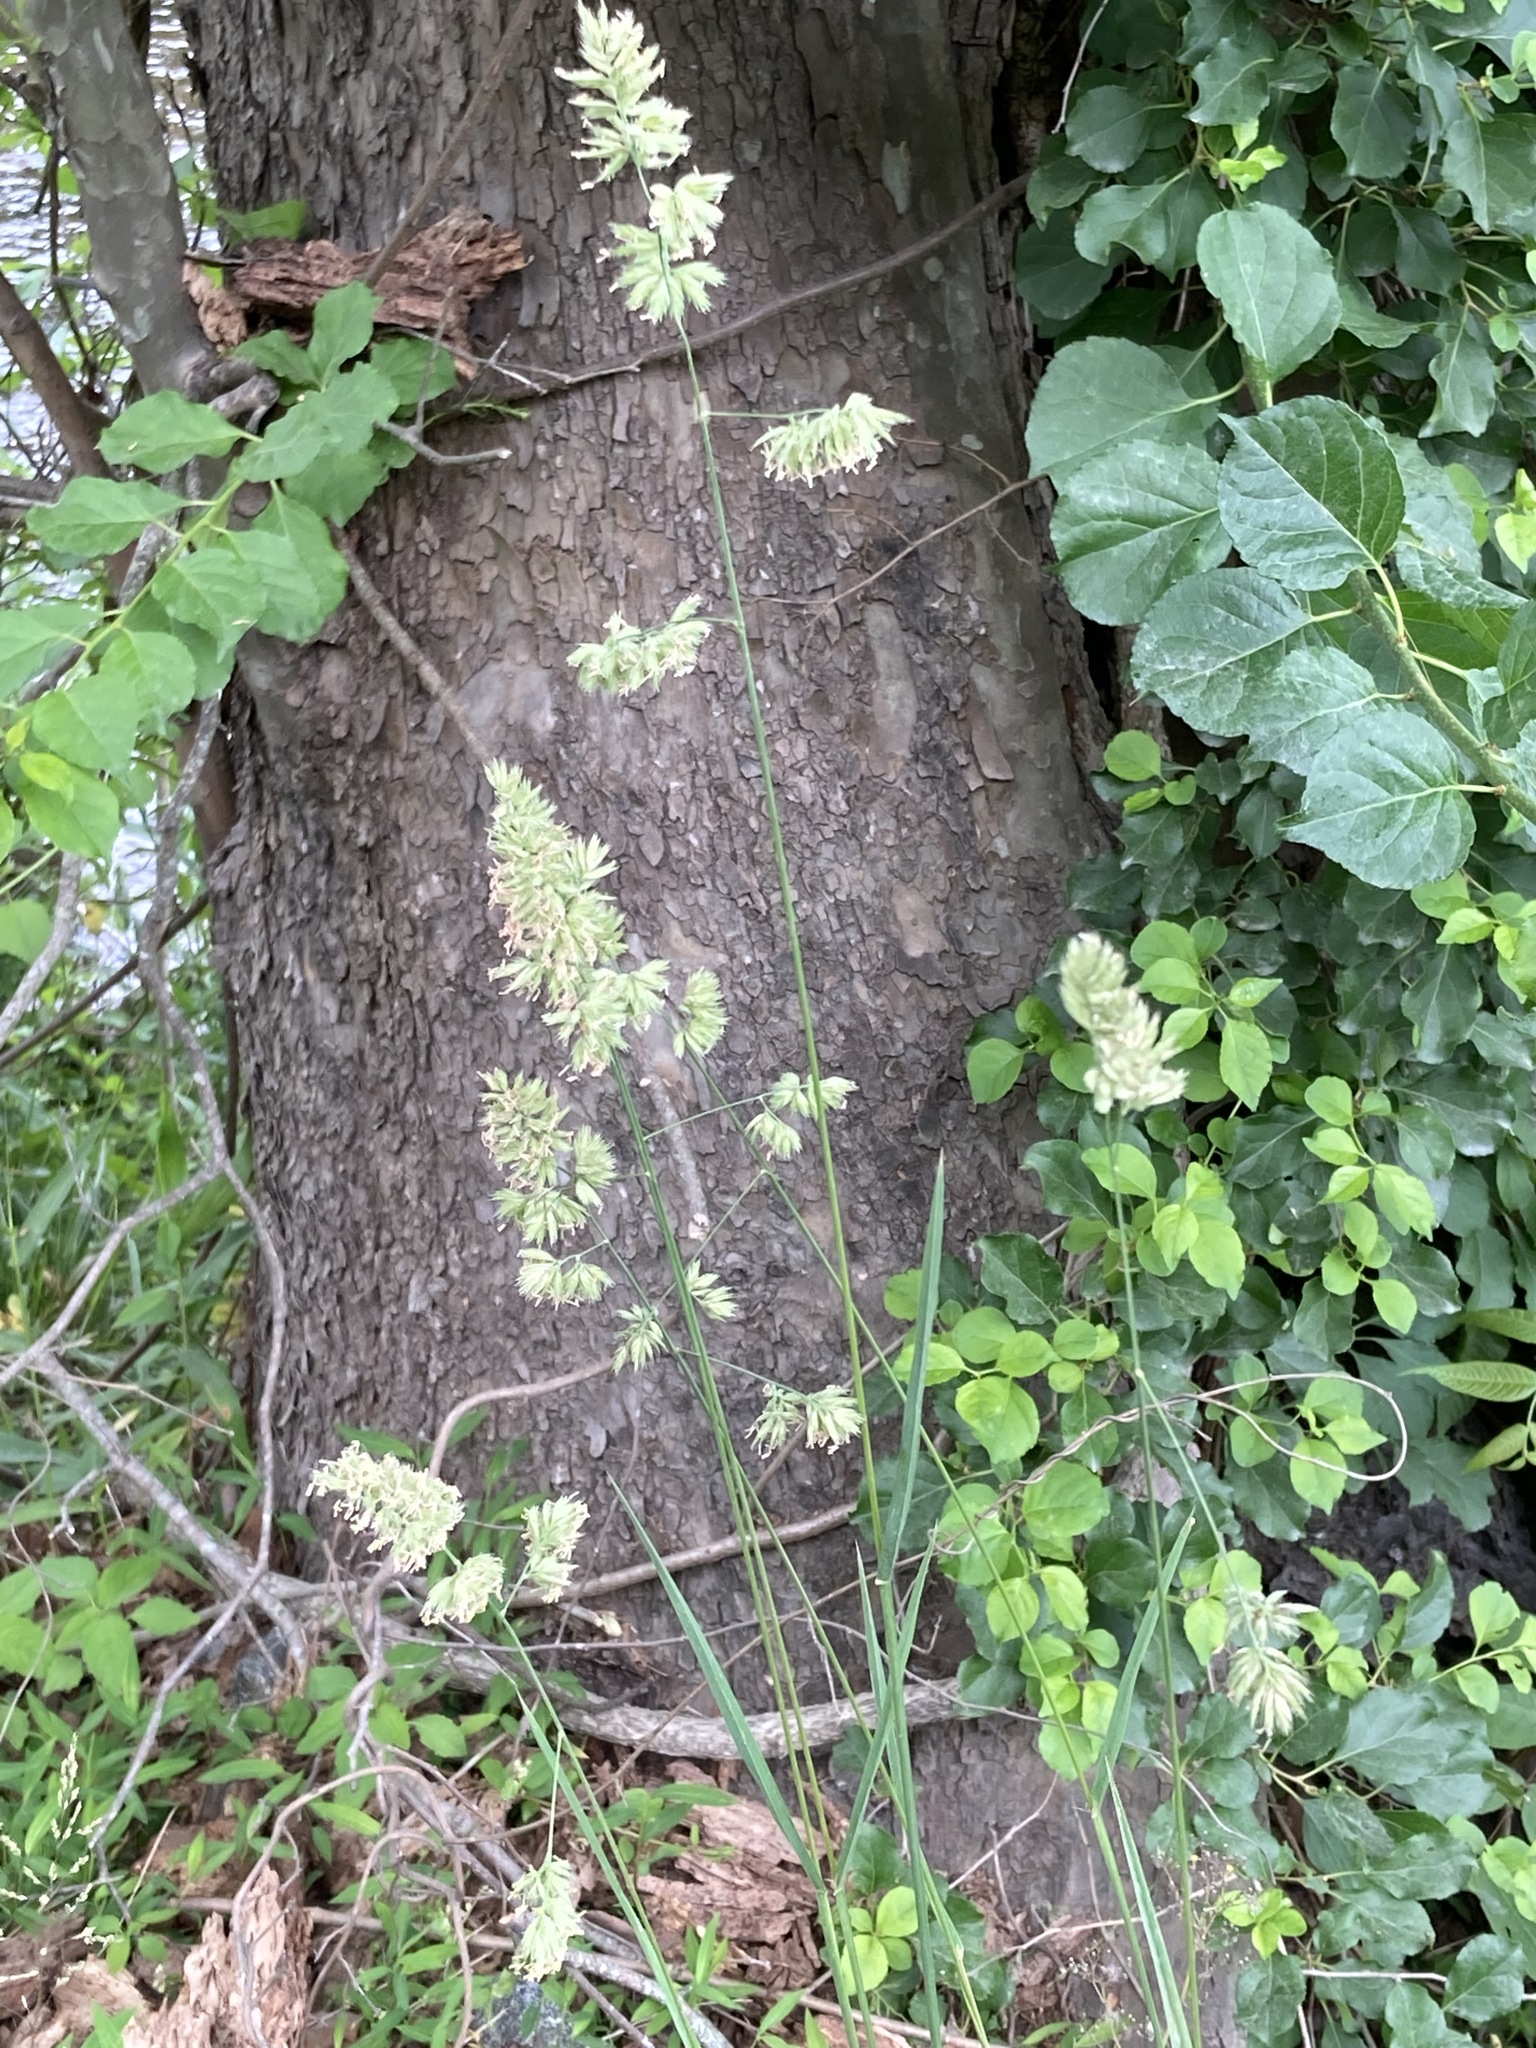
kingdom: Plantae
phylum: Tracheophyta
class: Liliopsida
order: Poales
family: Poaceae
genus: Dactylis
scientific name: Dactylis glomerata
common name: Orchardgrass
